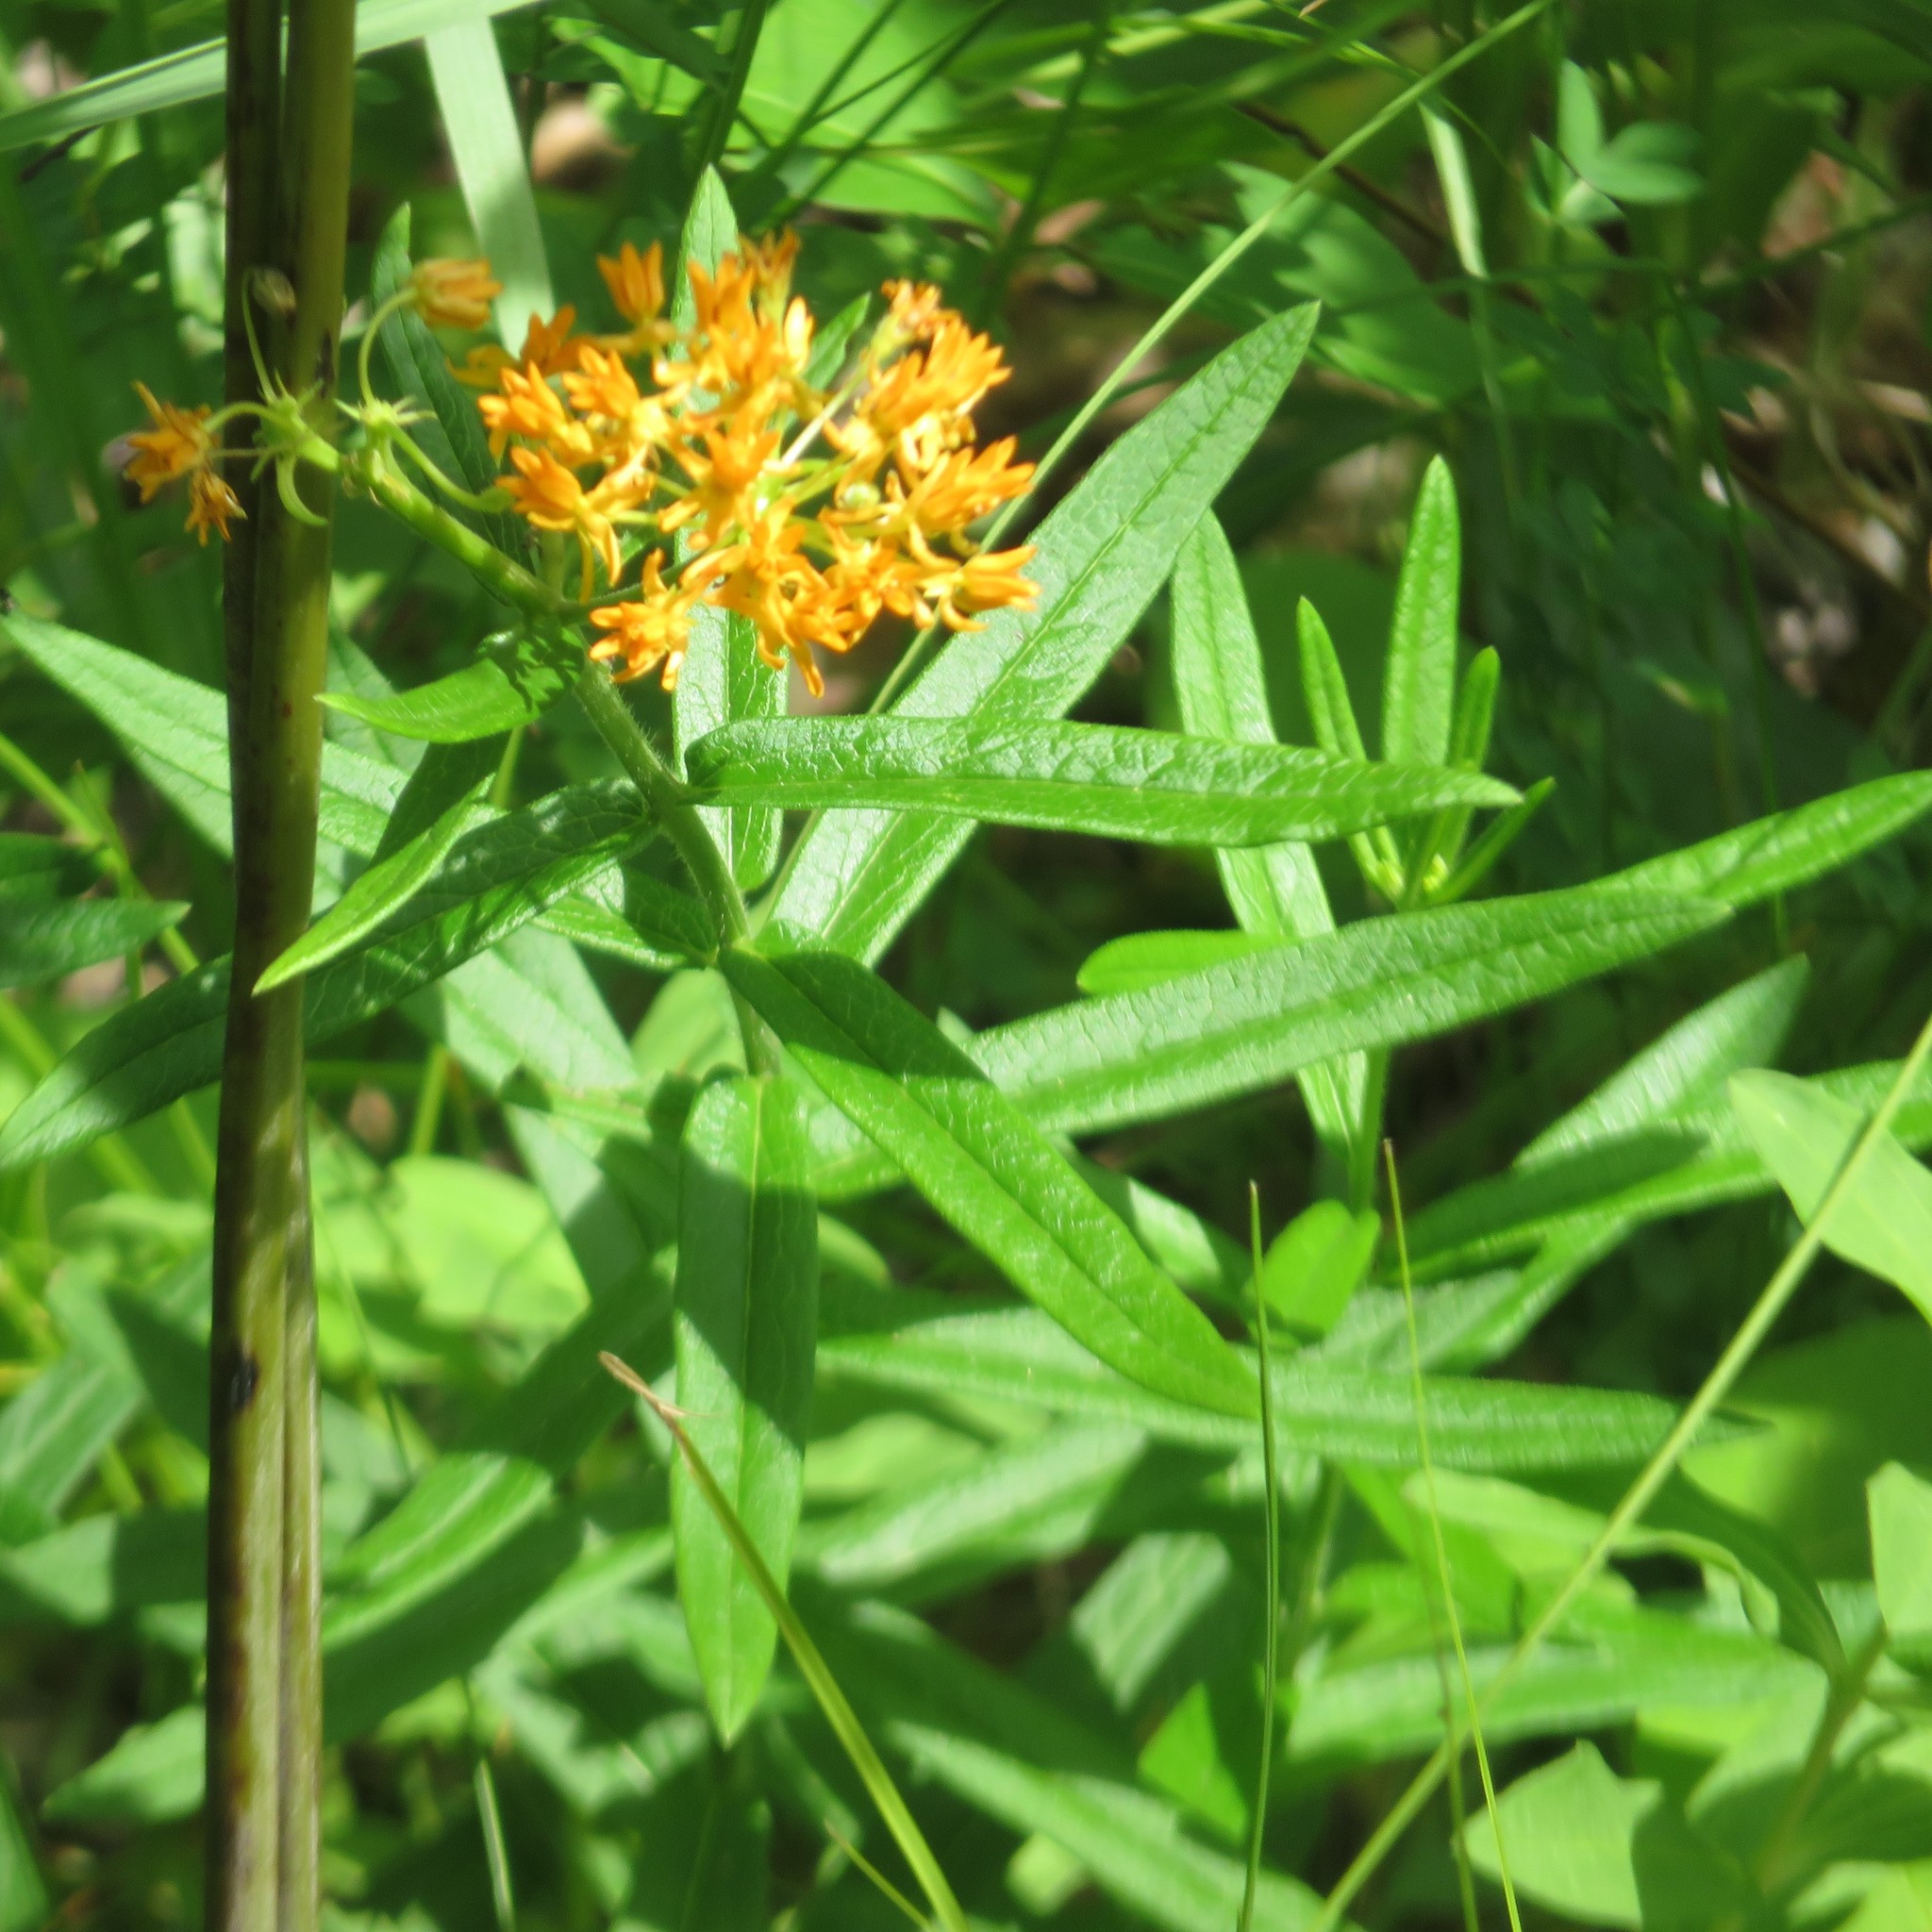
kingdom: Plantae
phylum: Tracheophyta
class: Magnoliopsida
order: Gentianales
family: Apocynaceae
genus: Asclepias
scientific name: Asclepias tuberosa
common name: Butterfly milkweed
